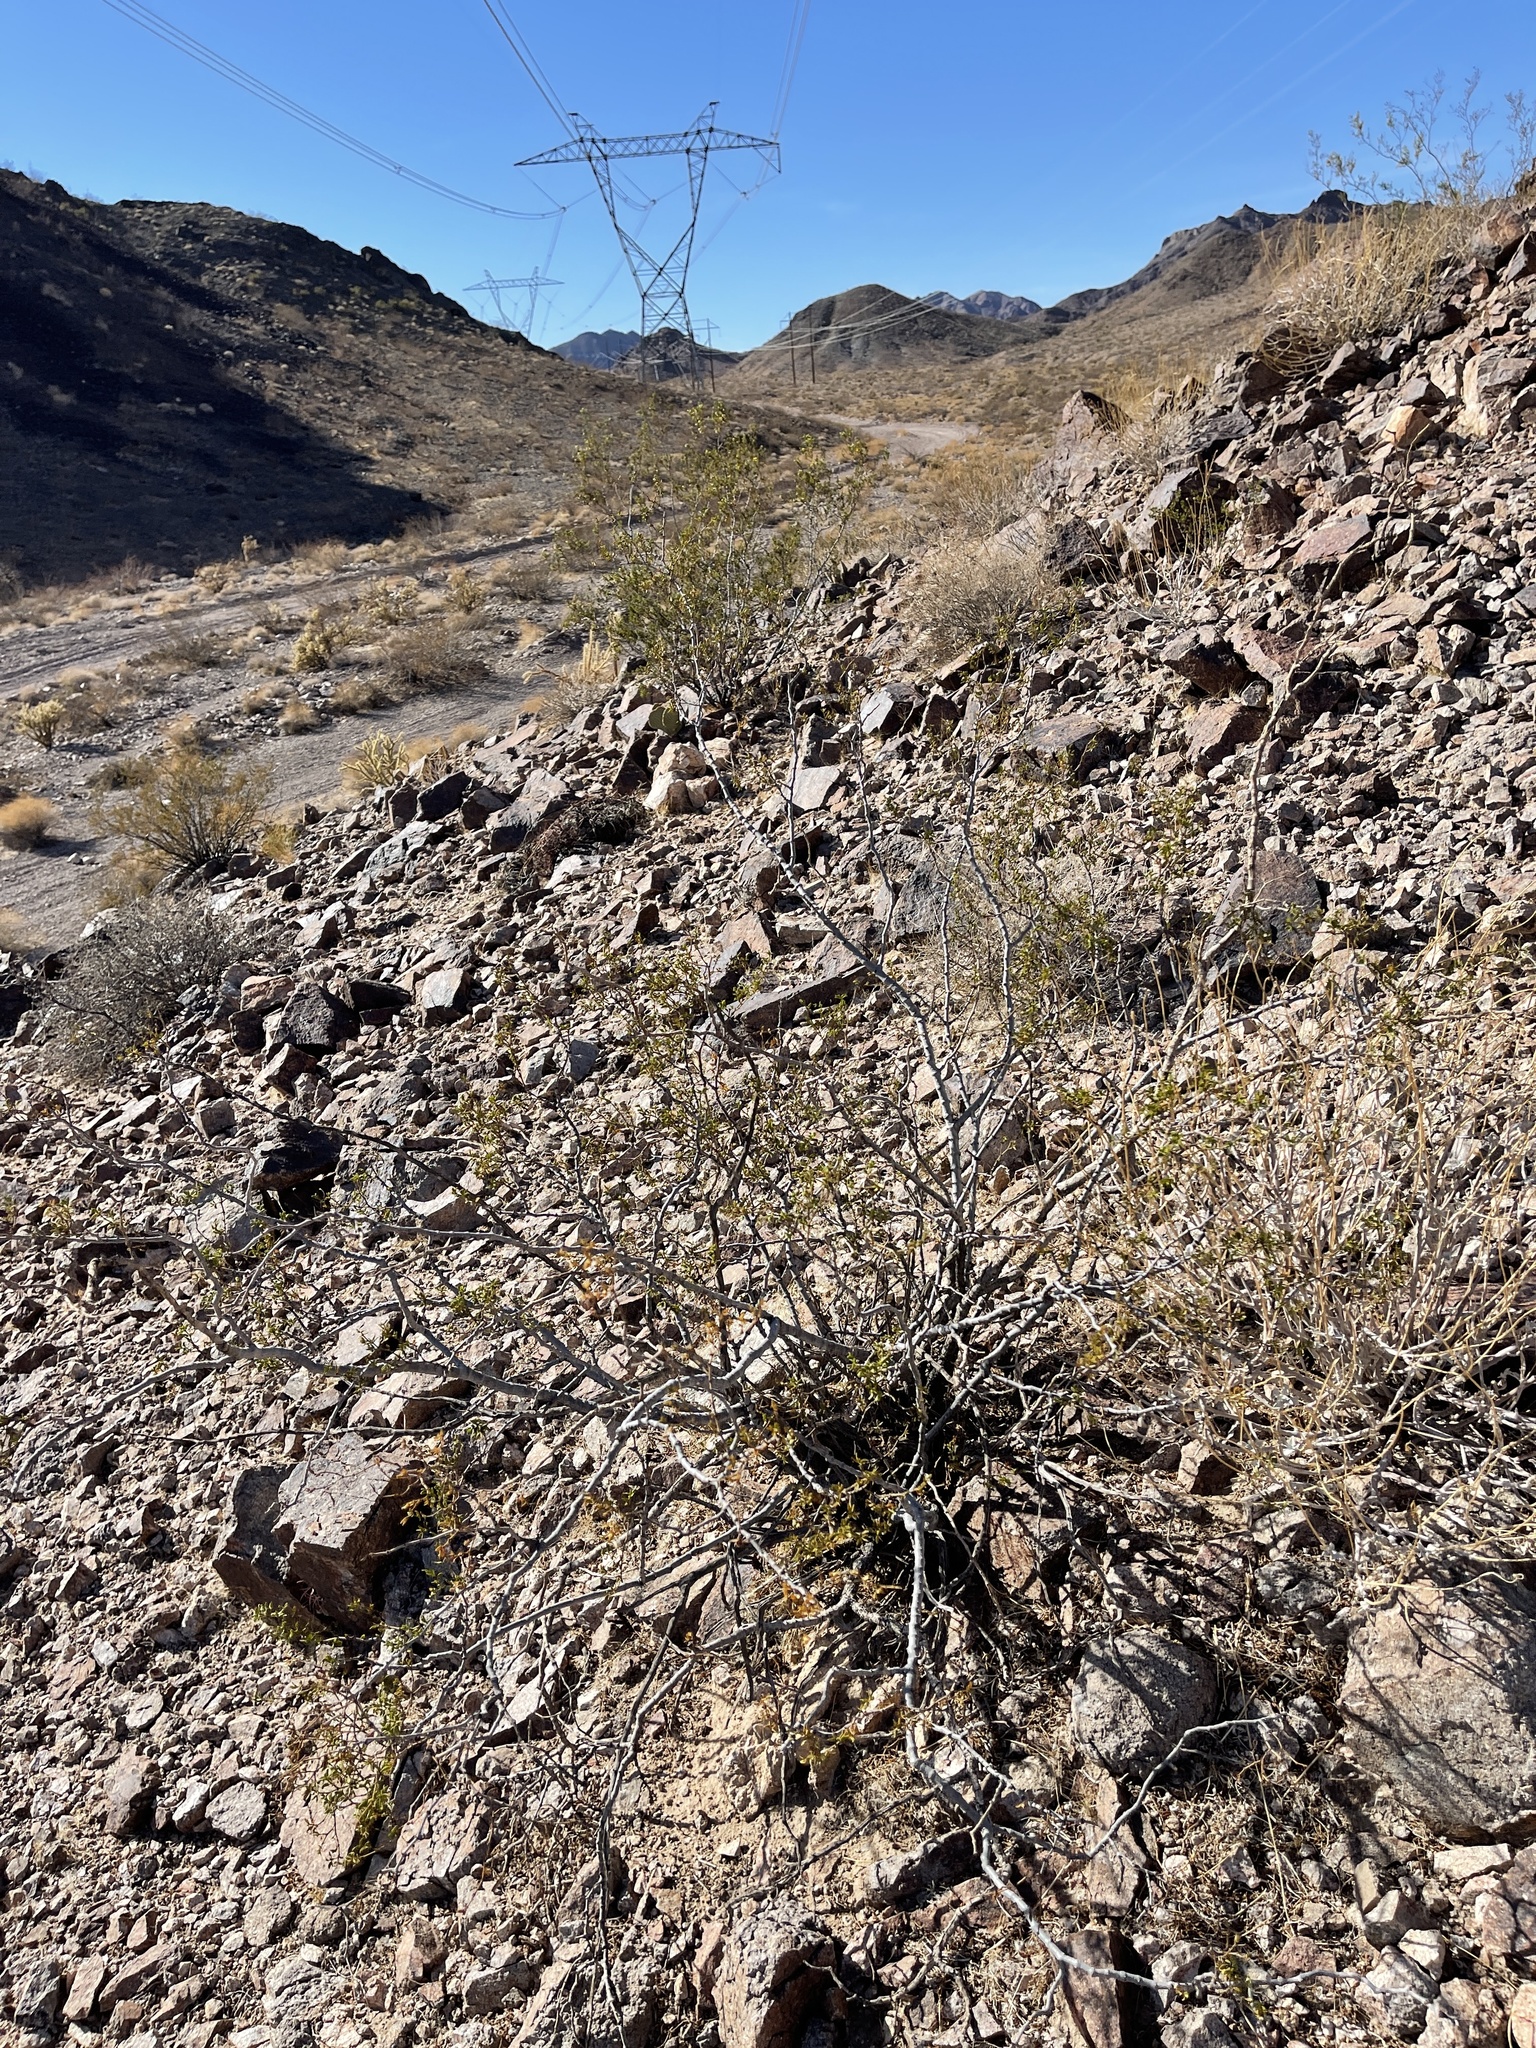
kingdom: Plantae
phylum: Tracheophyta
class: Magnoliopsida
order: Zygophyllales
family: Zygophyllaceae
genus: Larrea
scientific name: Larrea tridentata
